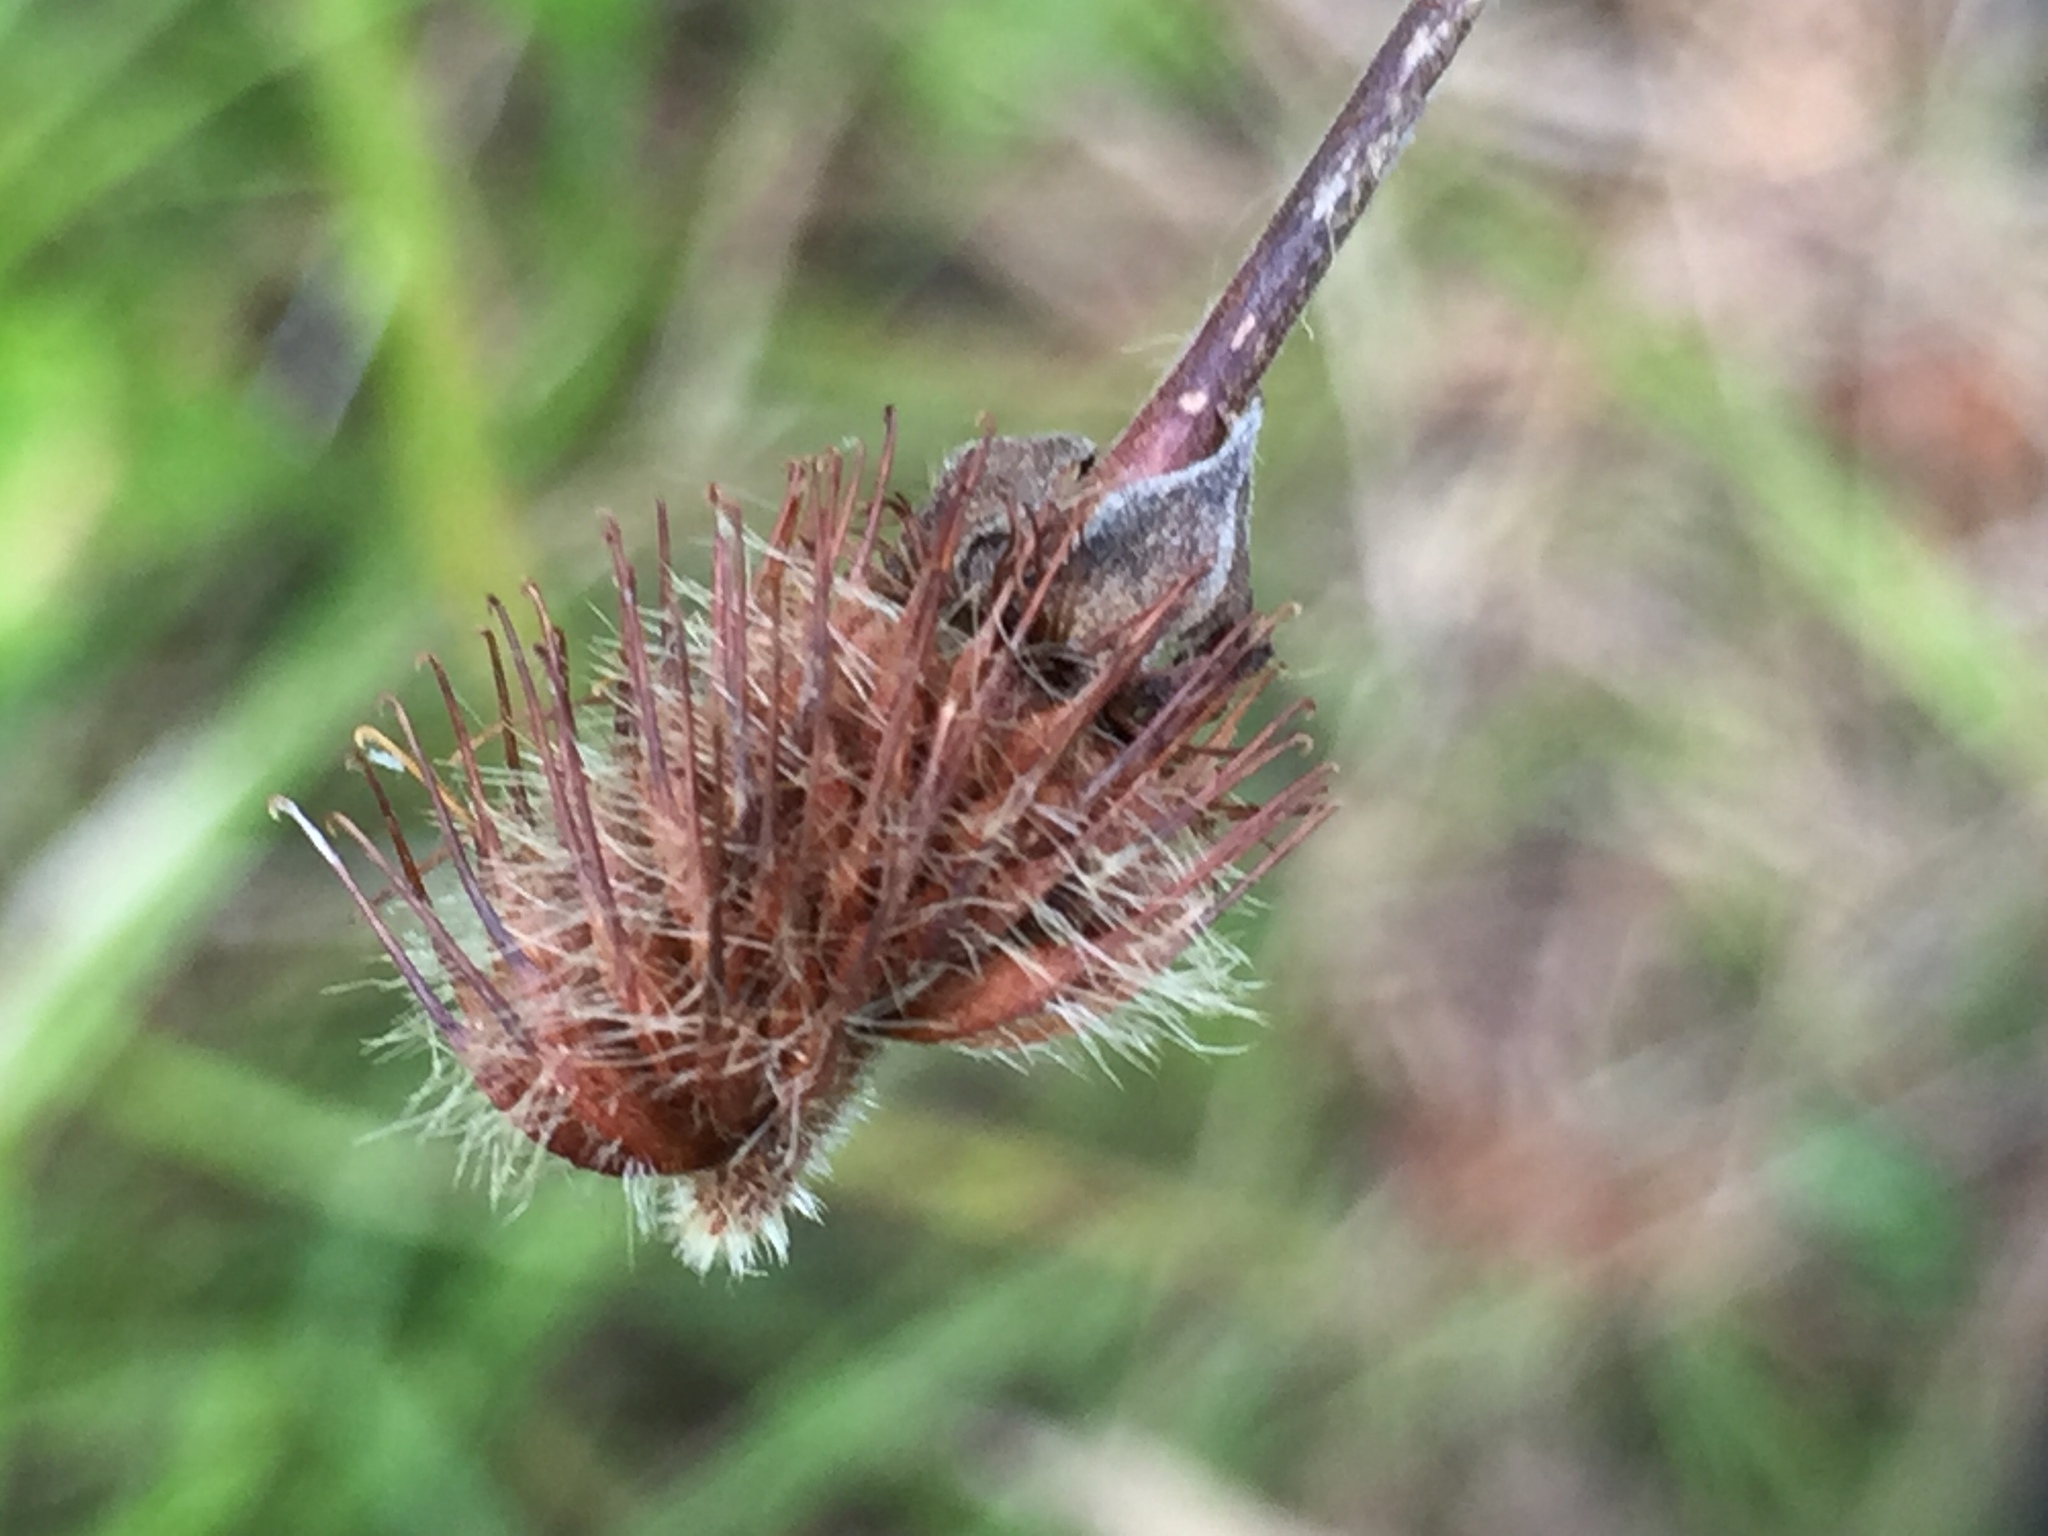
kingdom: Plantae
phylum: Tracheophyta
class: Magnoliopsida
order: Rosales
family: Rosaceae
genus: Geum
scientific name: Geum aleppicum
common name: Yellow avens
